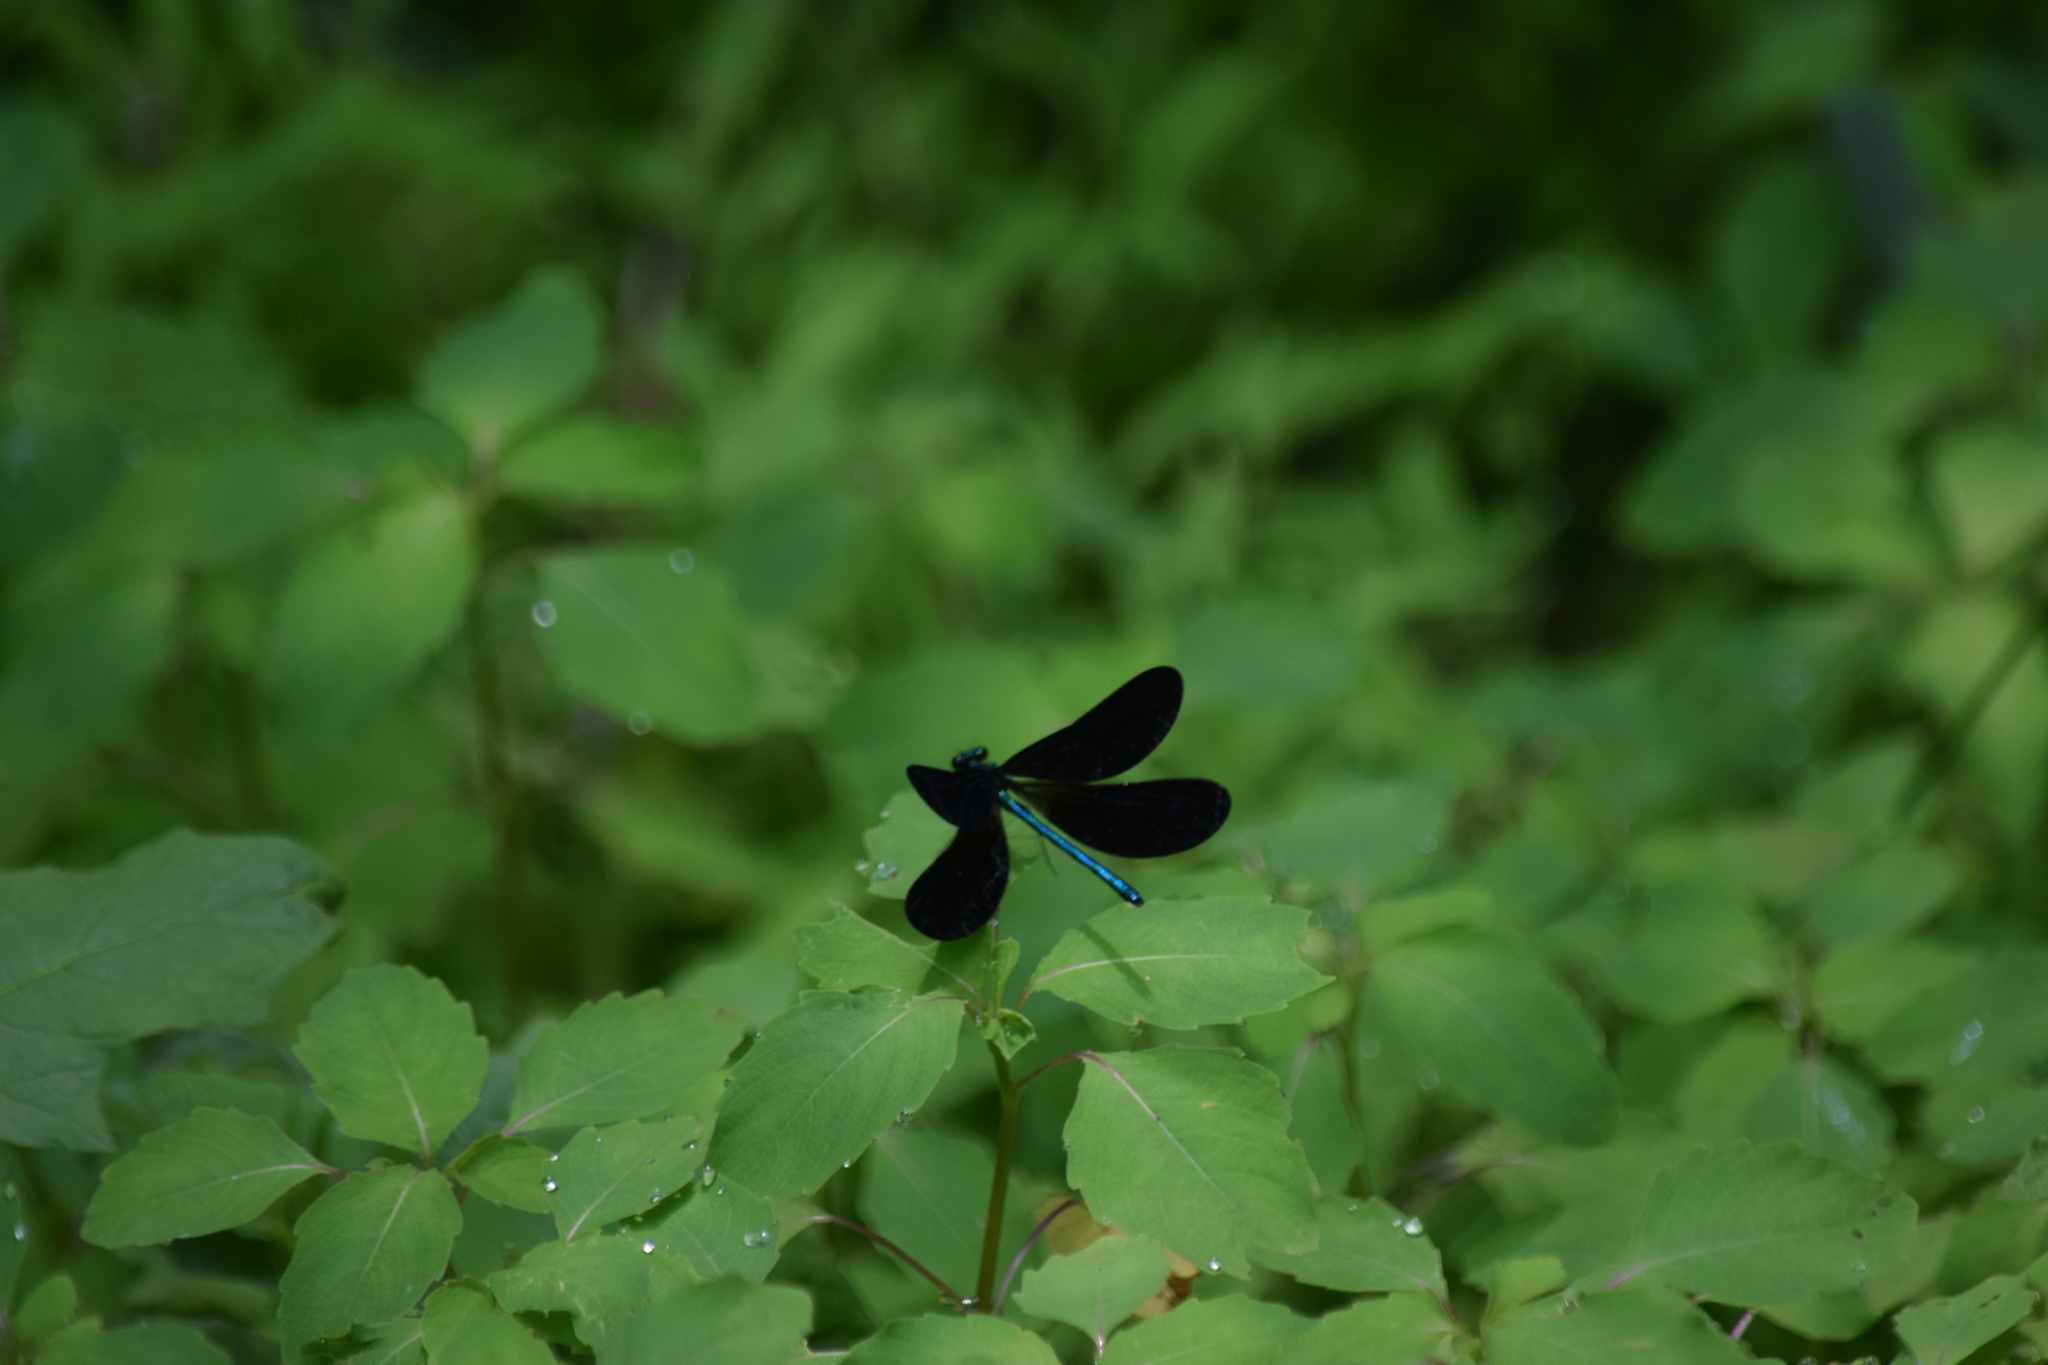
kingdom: Animalia
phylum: Arthropoda
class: Insecta
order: Odonata
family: Calopterygidae
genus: Calopteryx
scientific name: Calopteryx maculata
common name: Ebony jewelwing
